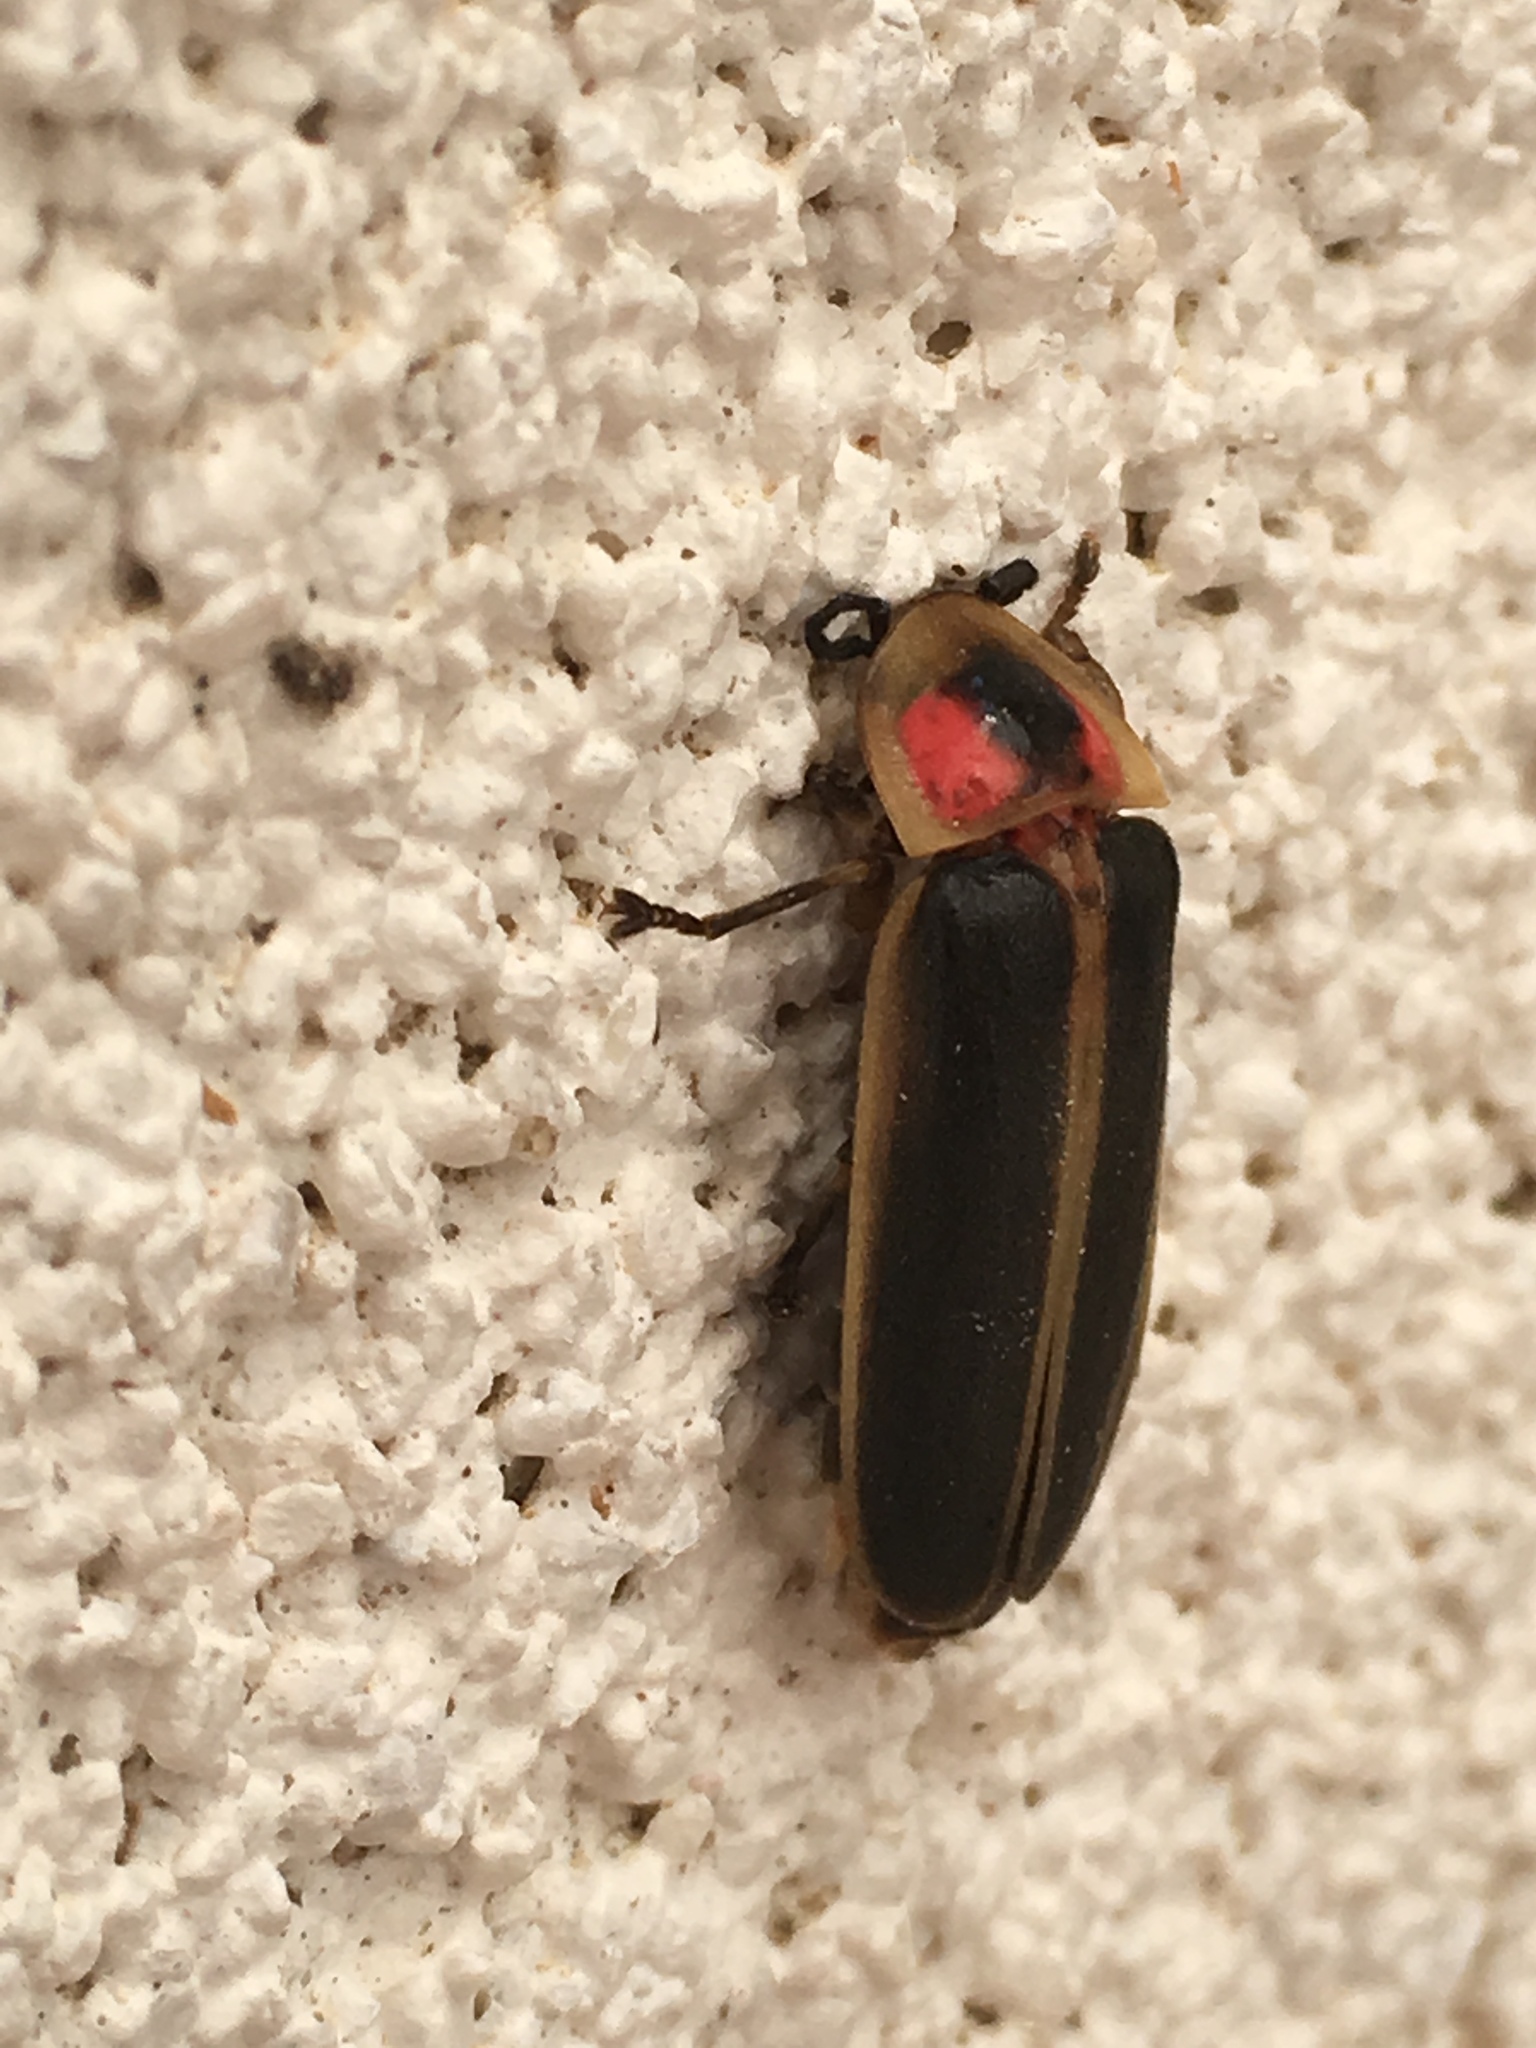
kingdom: Animalia
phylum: Arthropoda
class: Insecta
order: Coleoptera
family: Lampyridae
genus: Photinus
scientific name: Photinus pyralis
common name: Big dipper firefly
